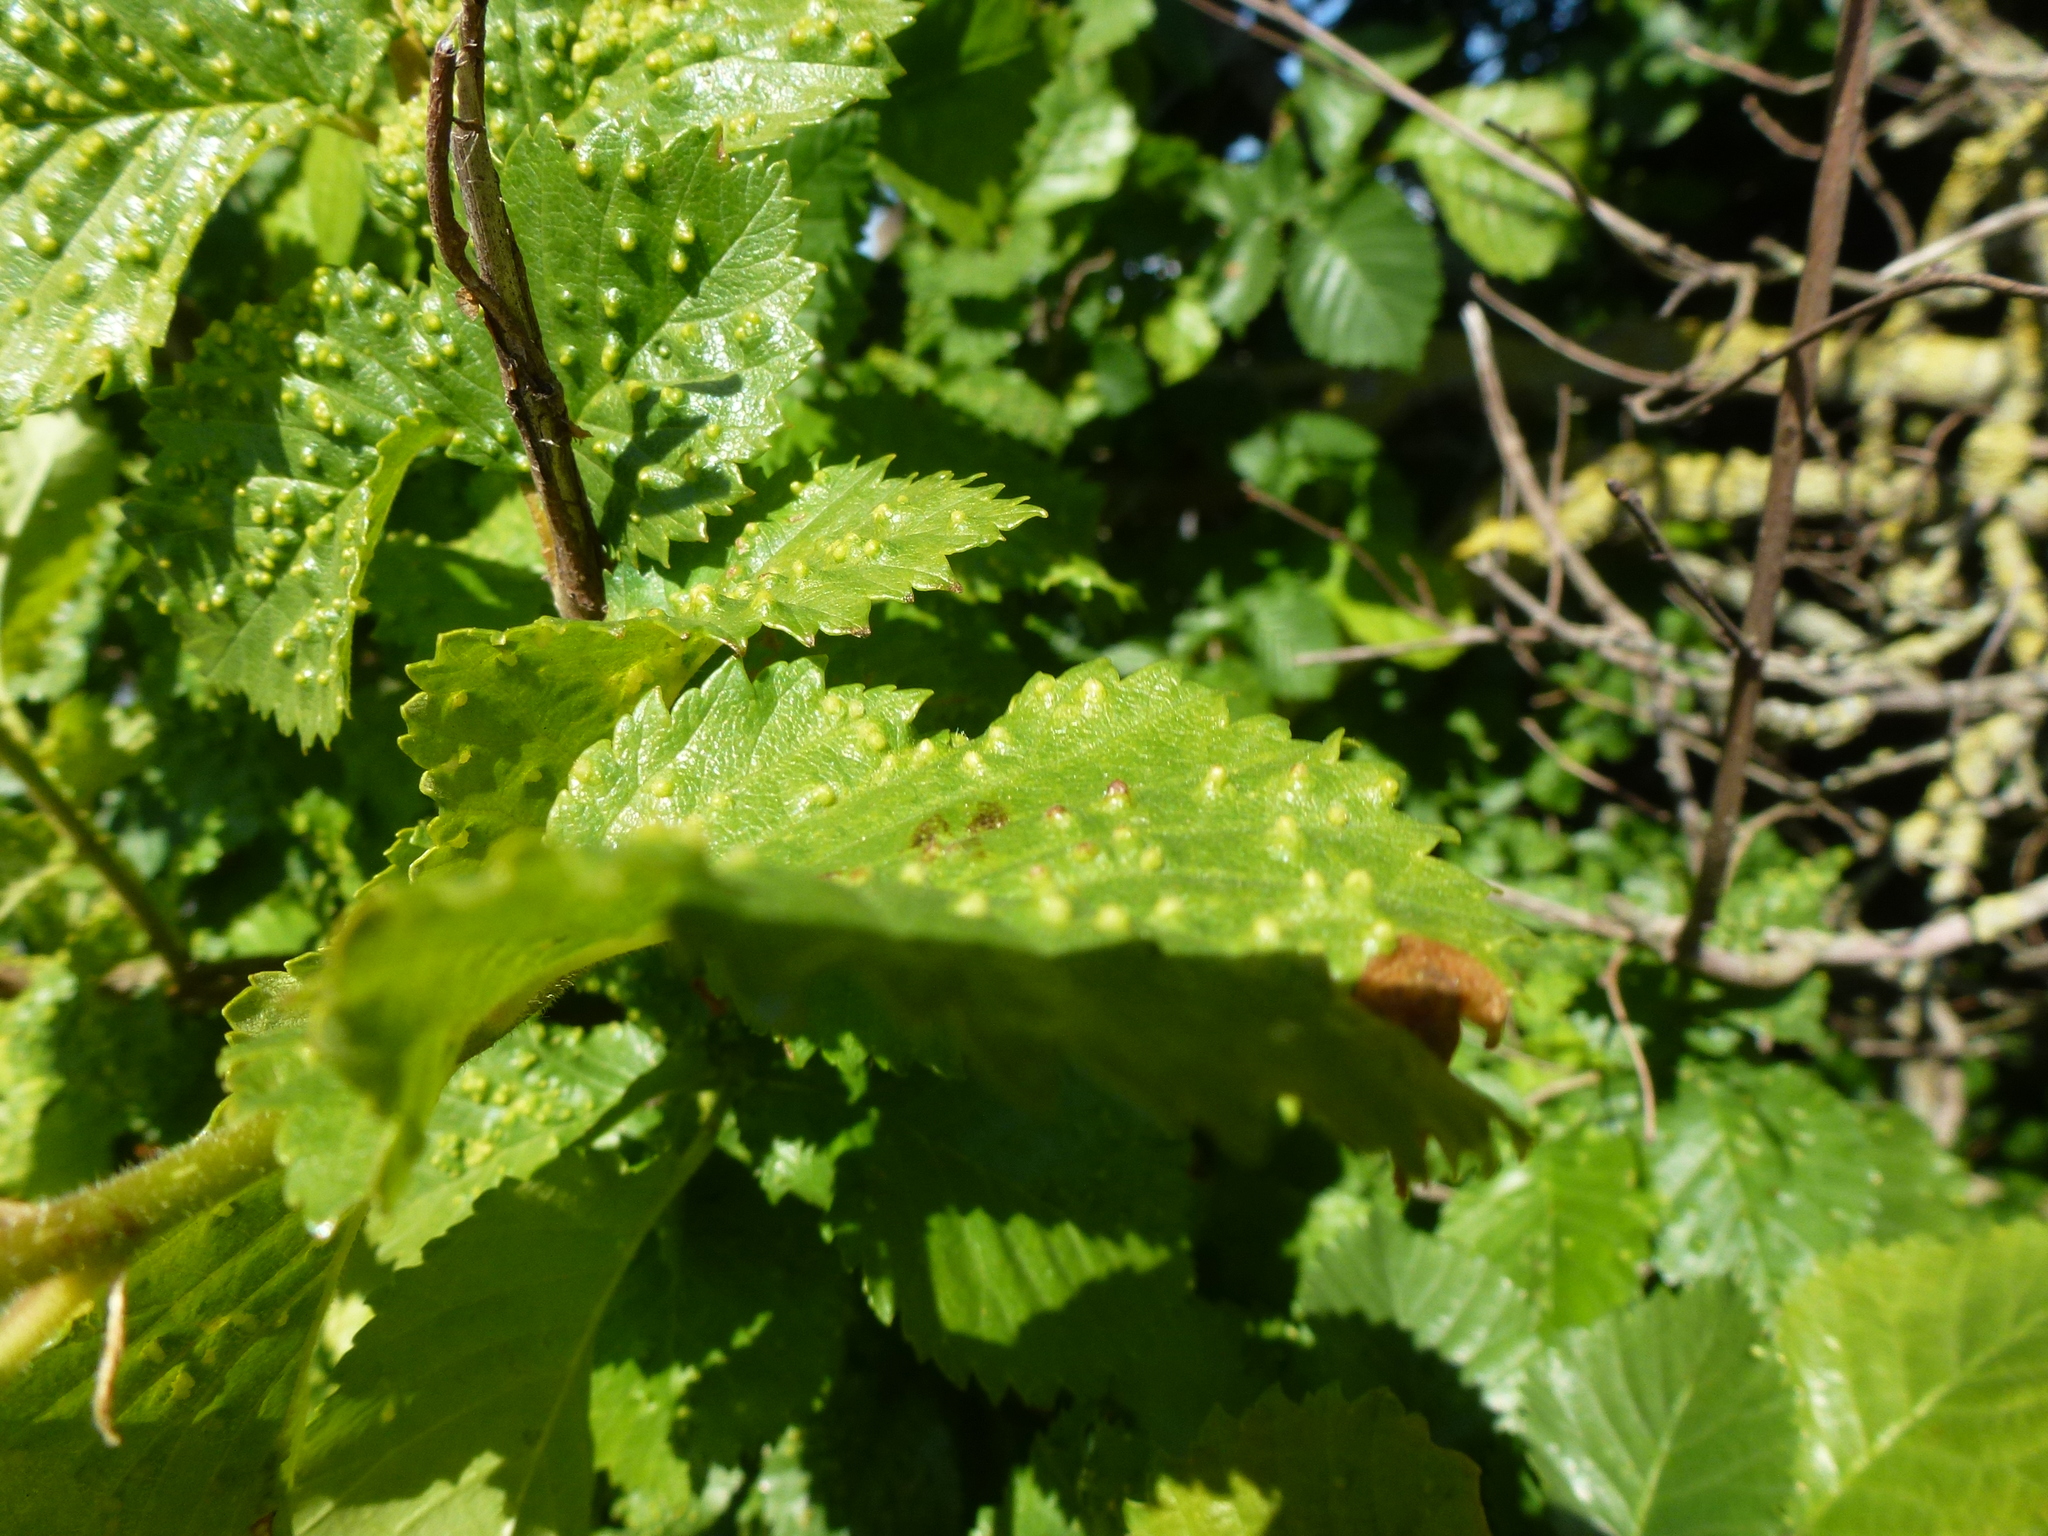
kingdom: Plantae
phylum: Tracheophyta
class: Magnoliopsida
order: Rosales
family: Ulmaceae
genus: Ulmus
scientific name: Ulmus minor
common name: Small-leaved elm
